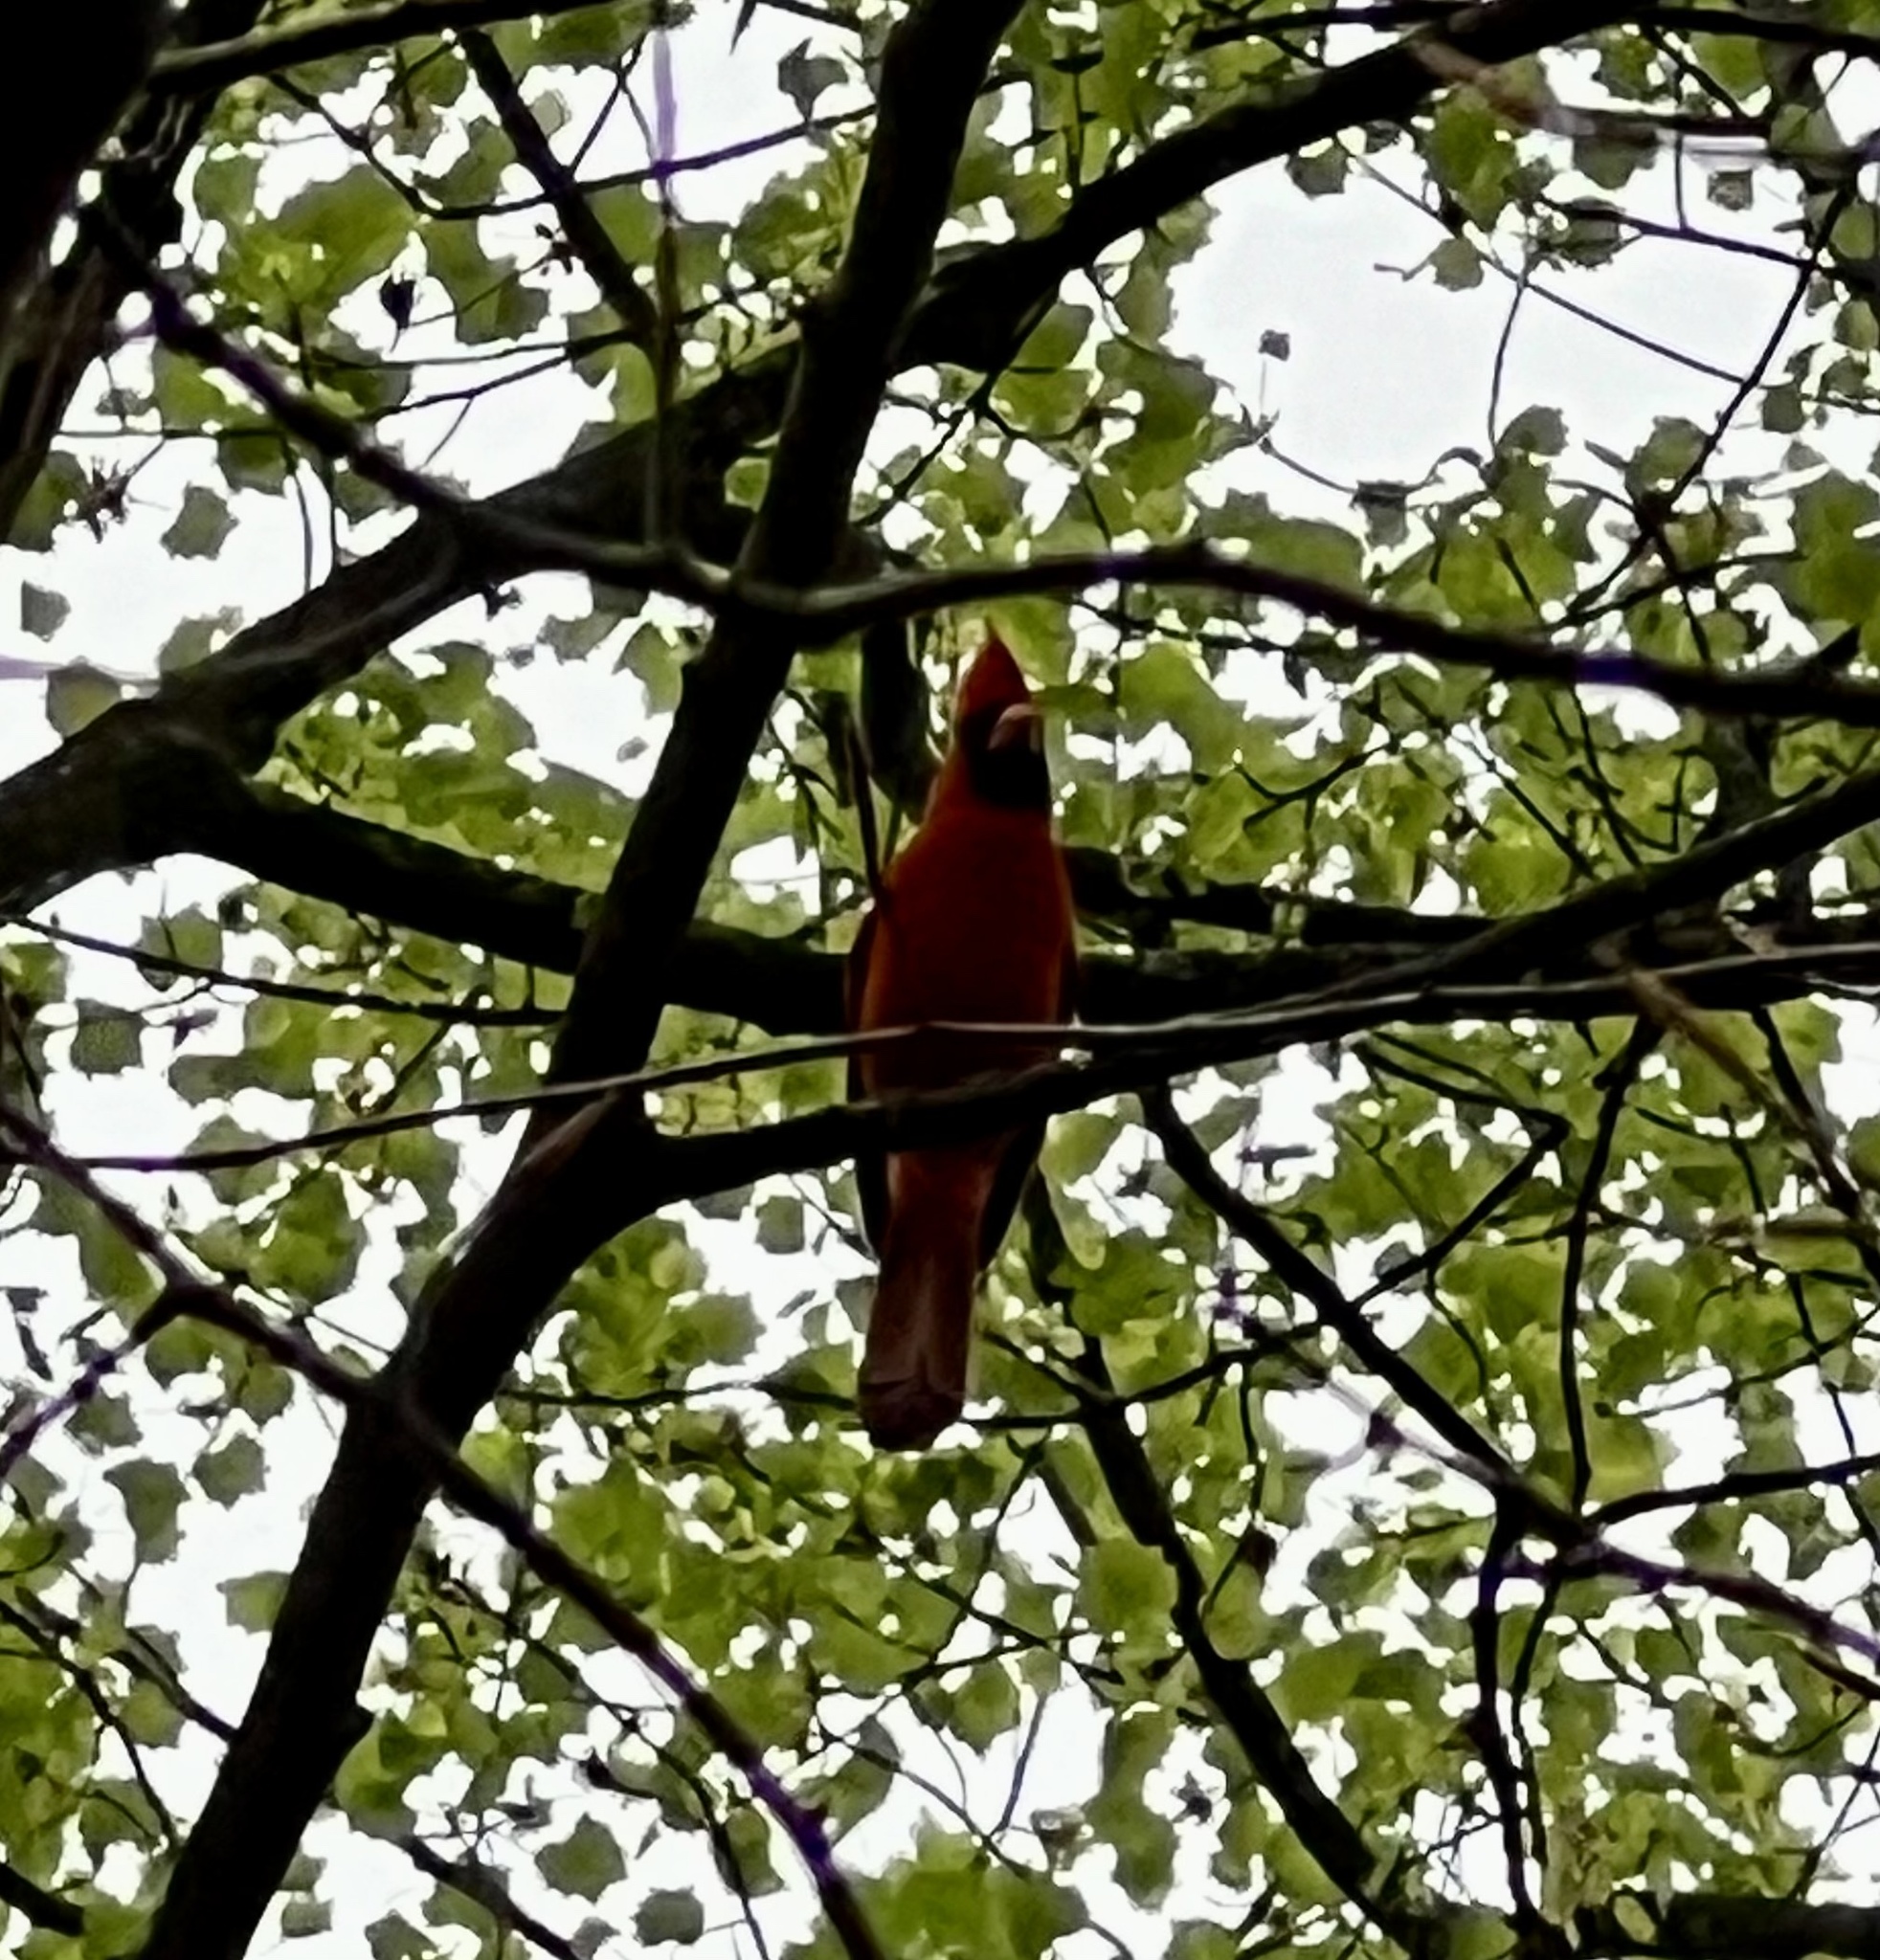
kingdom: Animalia
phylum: Chordata
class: Aves
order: Passeriformes
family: Cardinalidae
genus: Cardinalis
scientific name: Cardinalis cardinalis
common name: Northern cardinal
